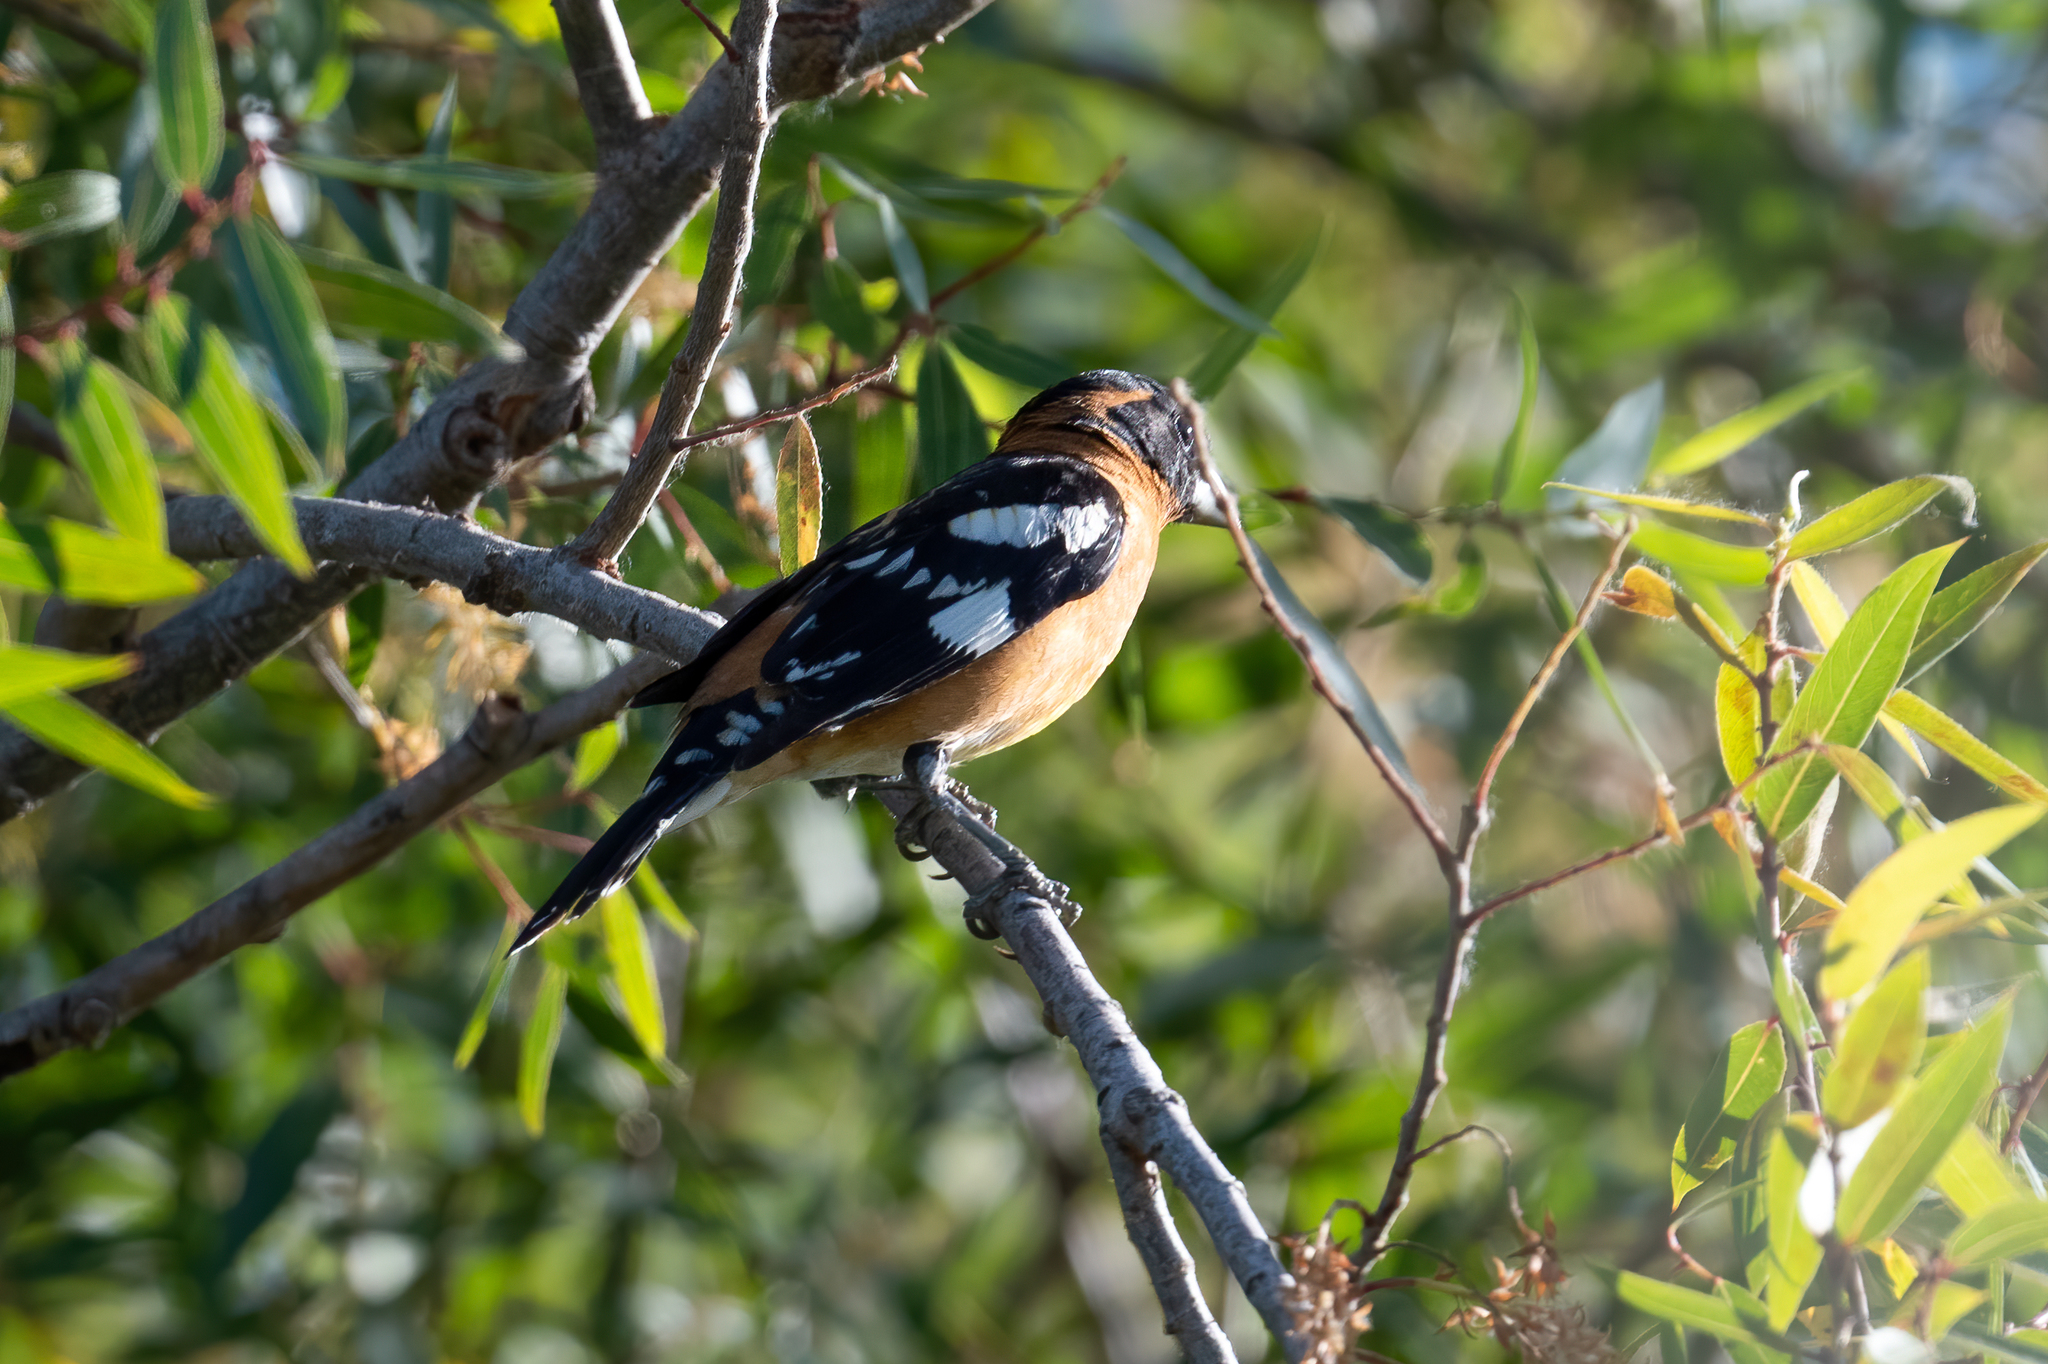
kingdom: Animalia
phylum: Chordata
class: Aves
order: Passeriformes
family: Cardinalidae
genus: Pheucticus
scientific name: Pheucticus melanocephalus
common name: Black-headed grosbeak
